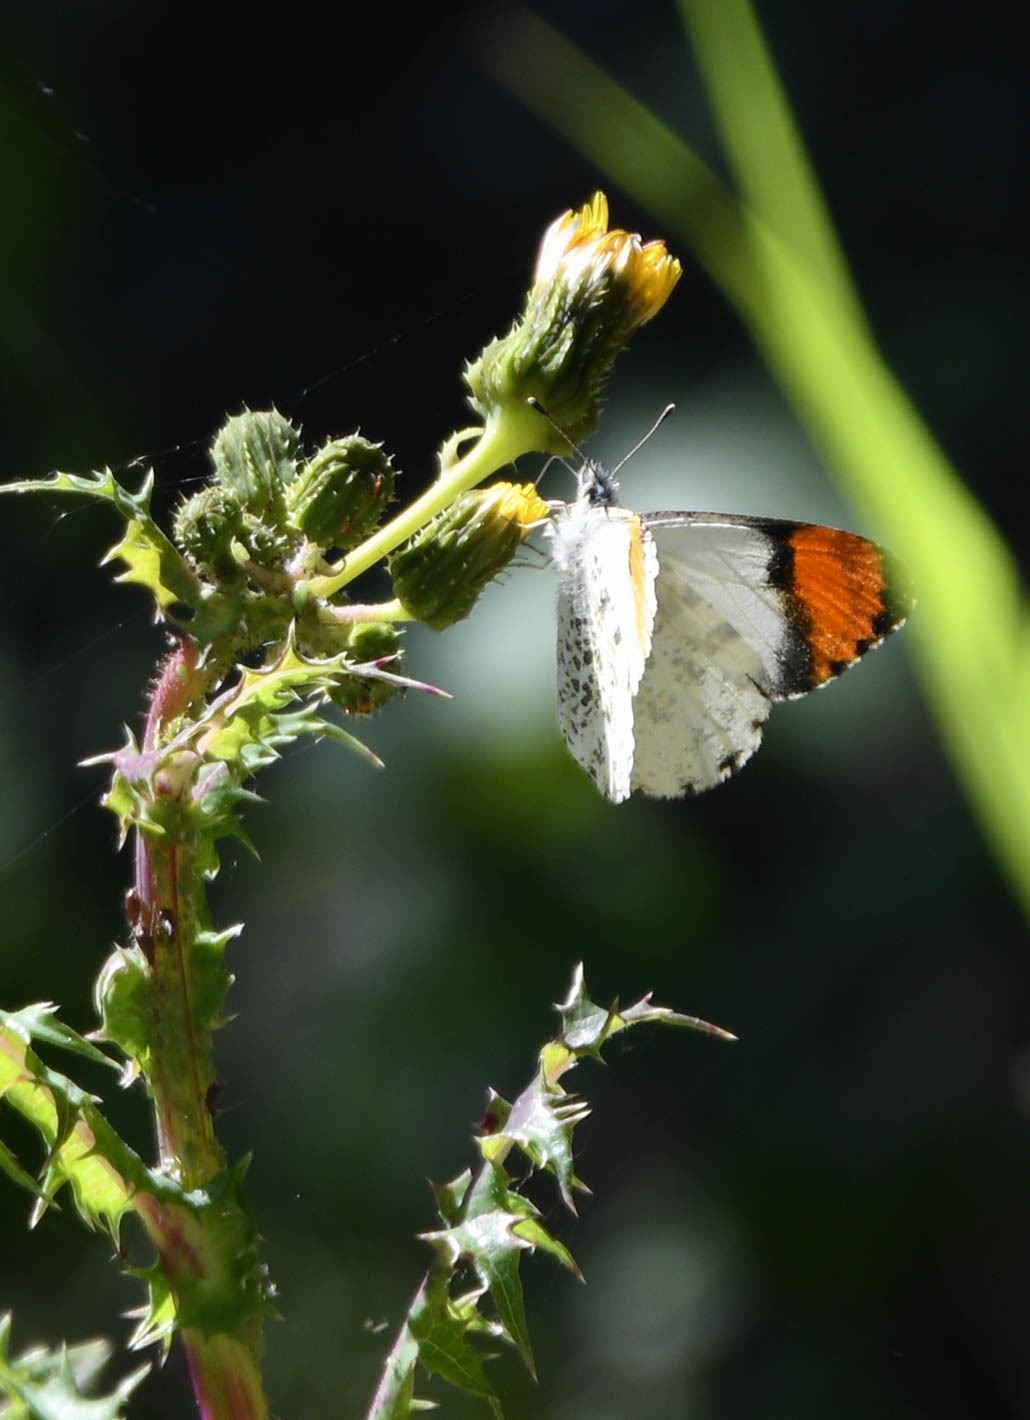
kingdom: Animalia
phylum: Arthropoda
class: Insecta
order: Lepidoptera
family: Pieridae
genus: Anthocharis
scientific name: Anthocharis sara
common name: Sara's orangetip
